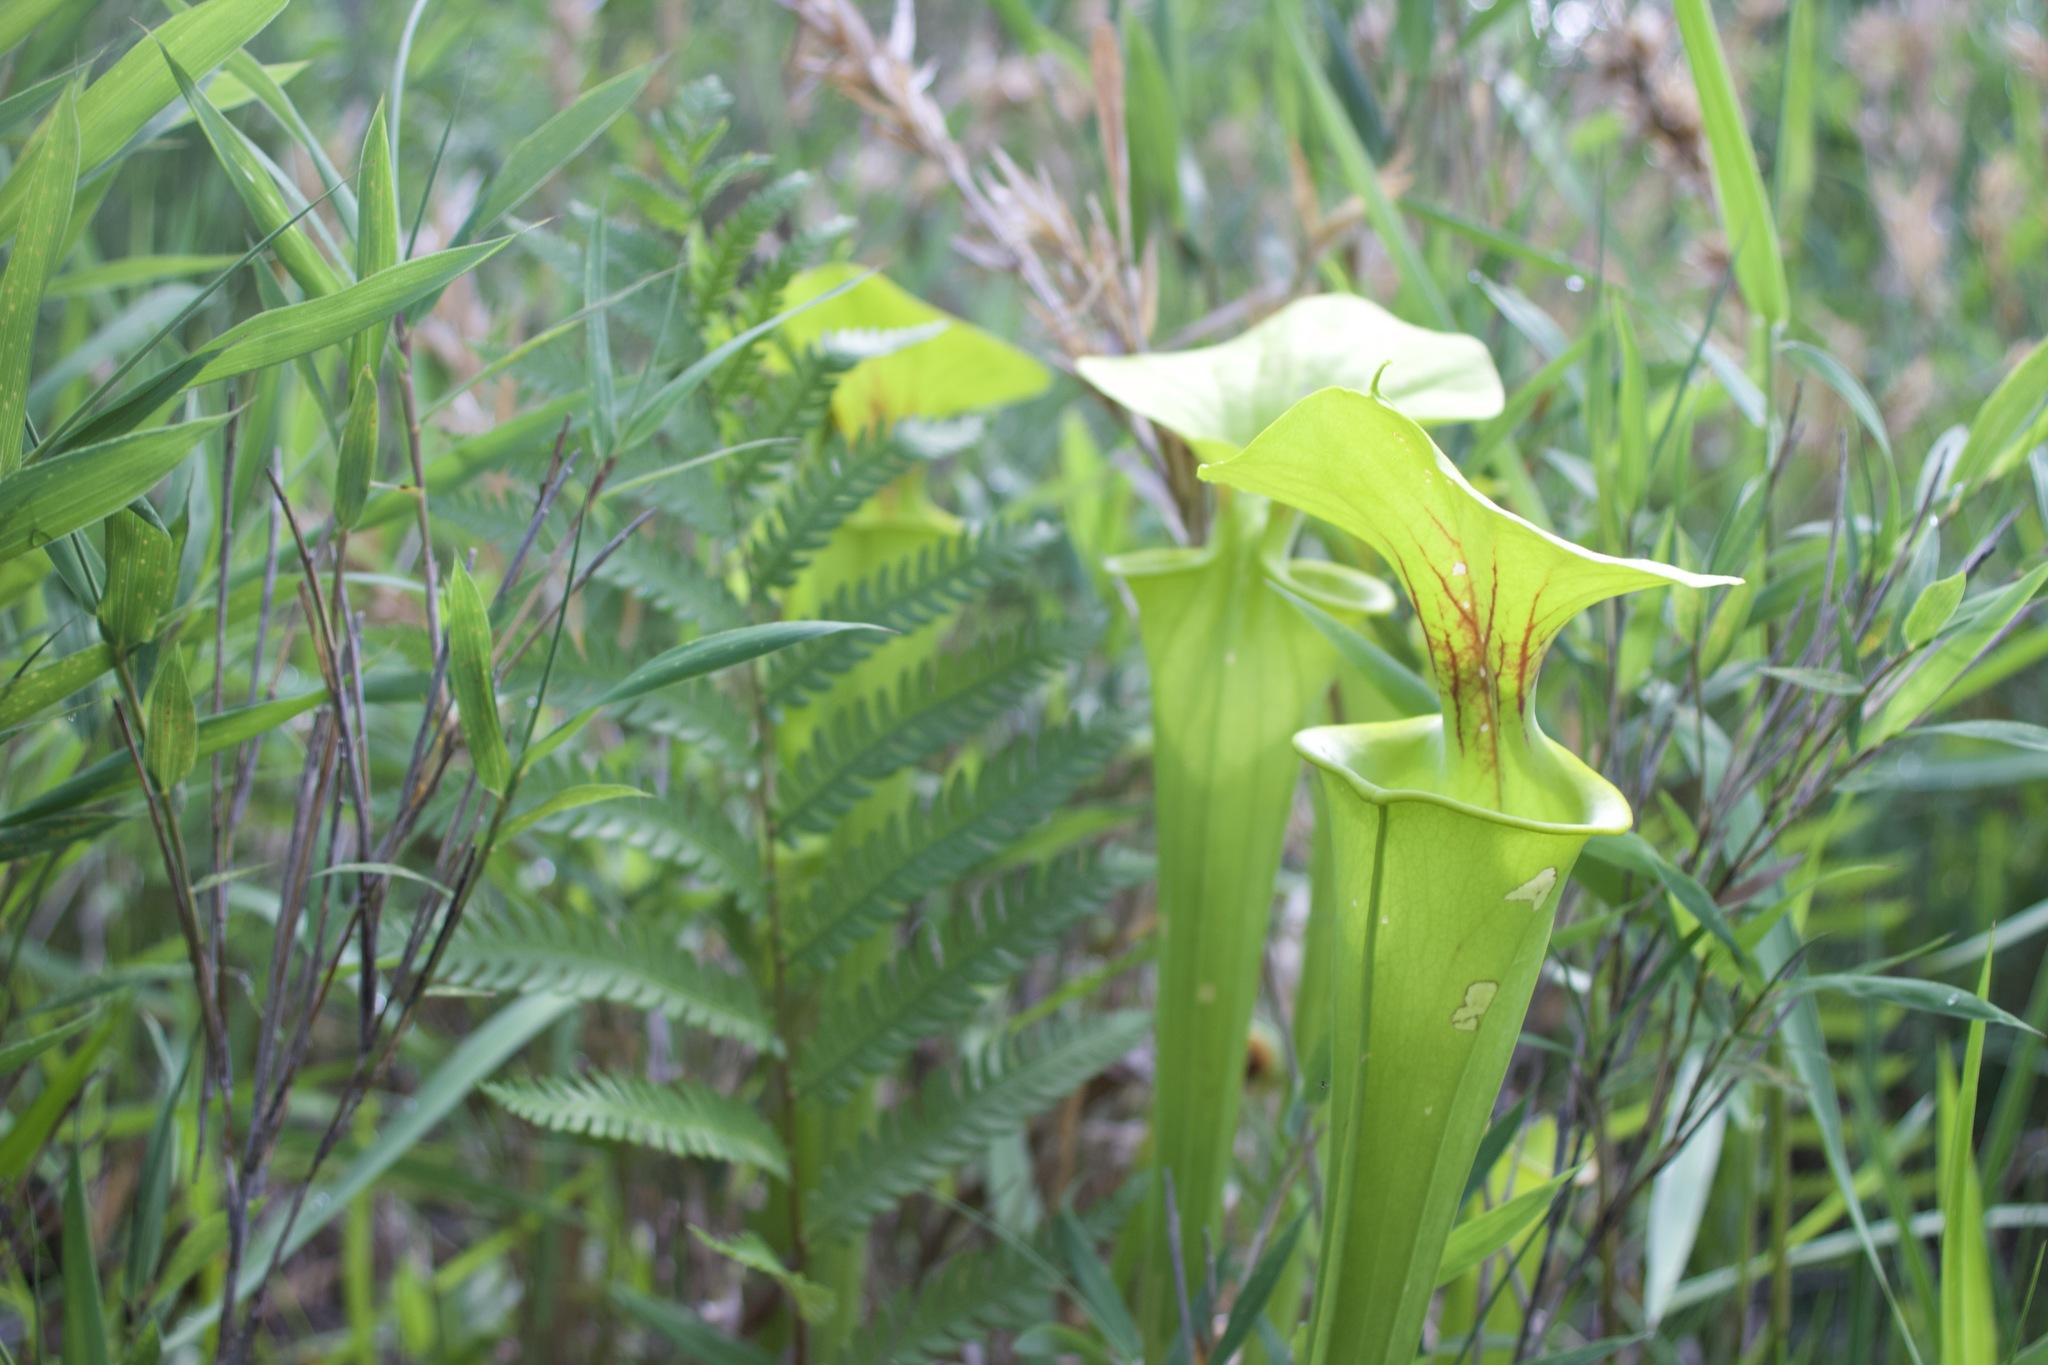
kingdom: Plantae
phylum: Tracheophyta
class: Magnoliopsida
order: Ericales
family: Sarraceniaceae
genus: Sarracenia
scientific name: Sarracenia flava
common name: Trumpets
